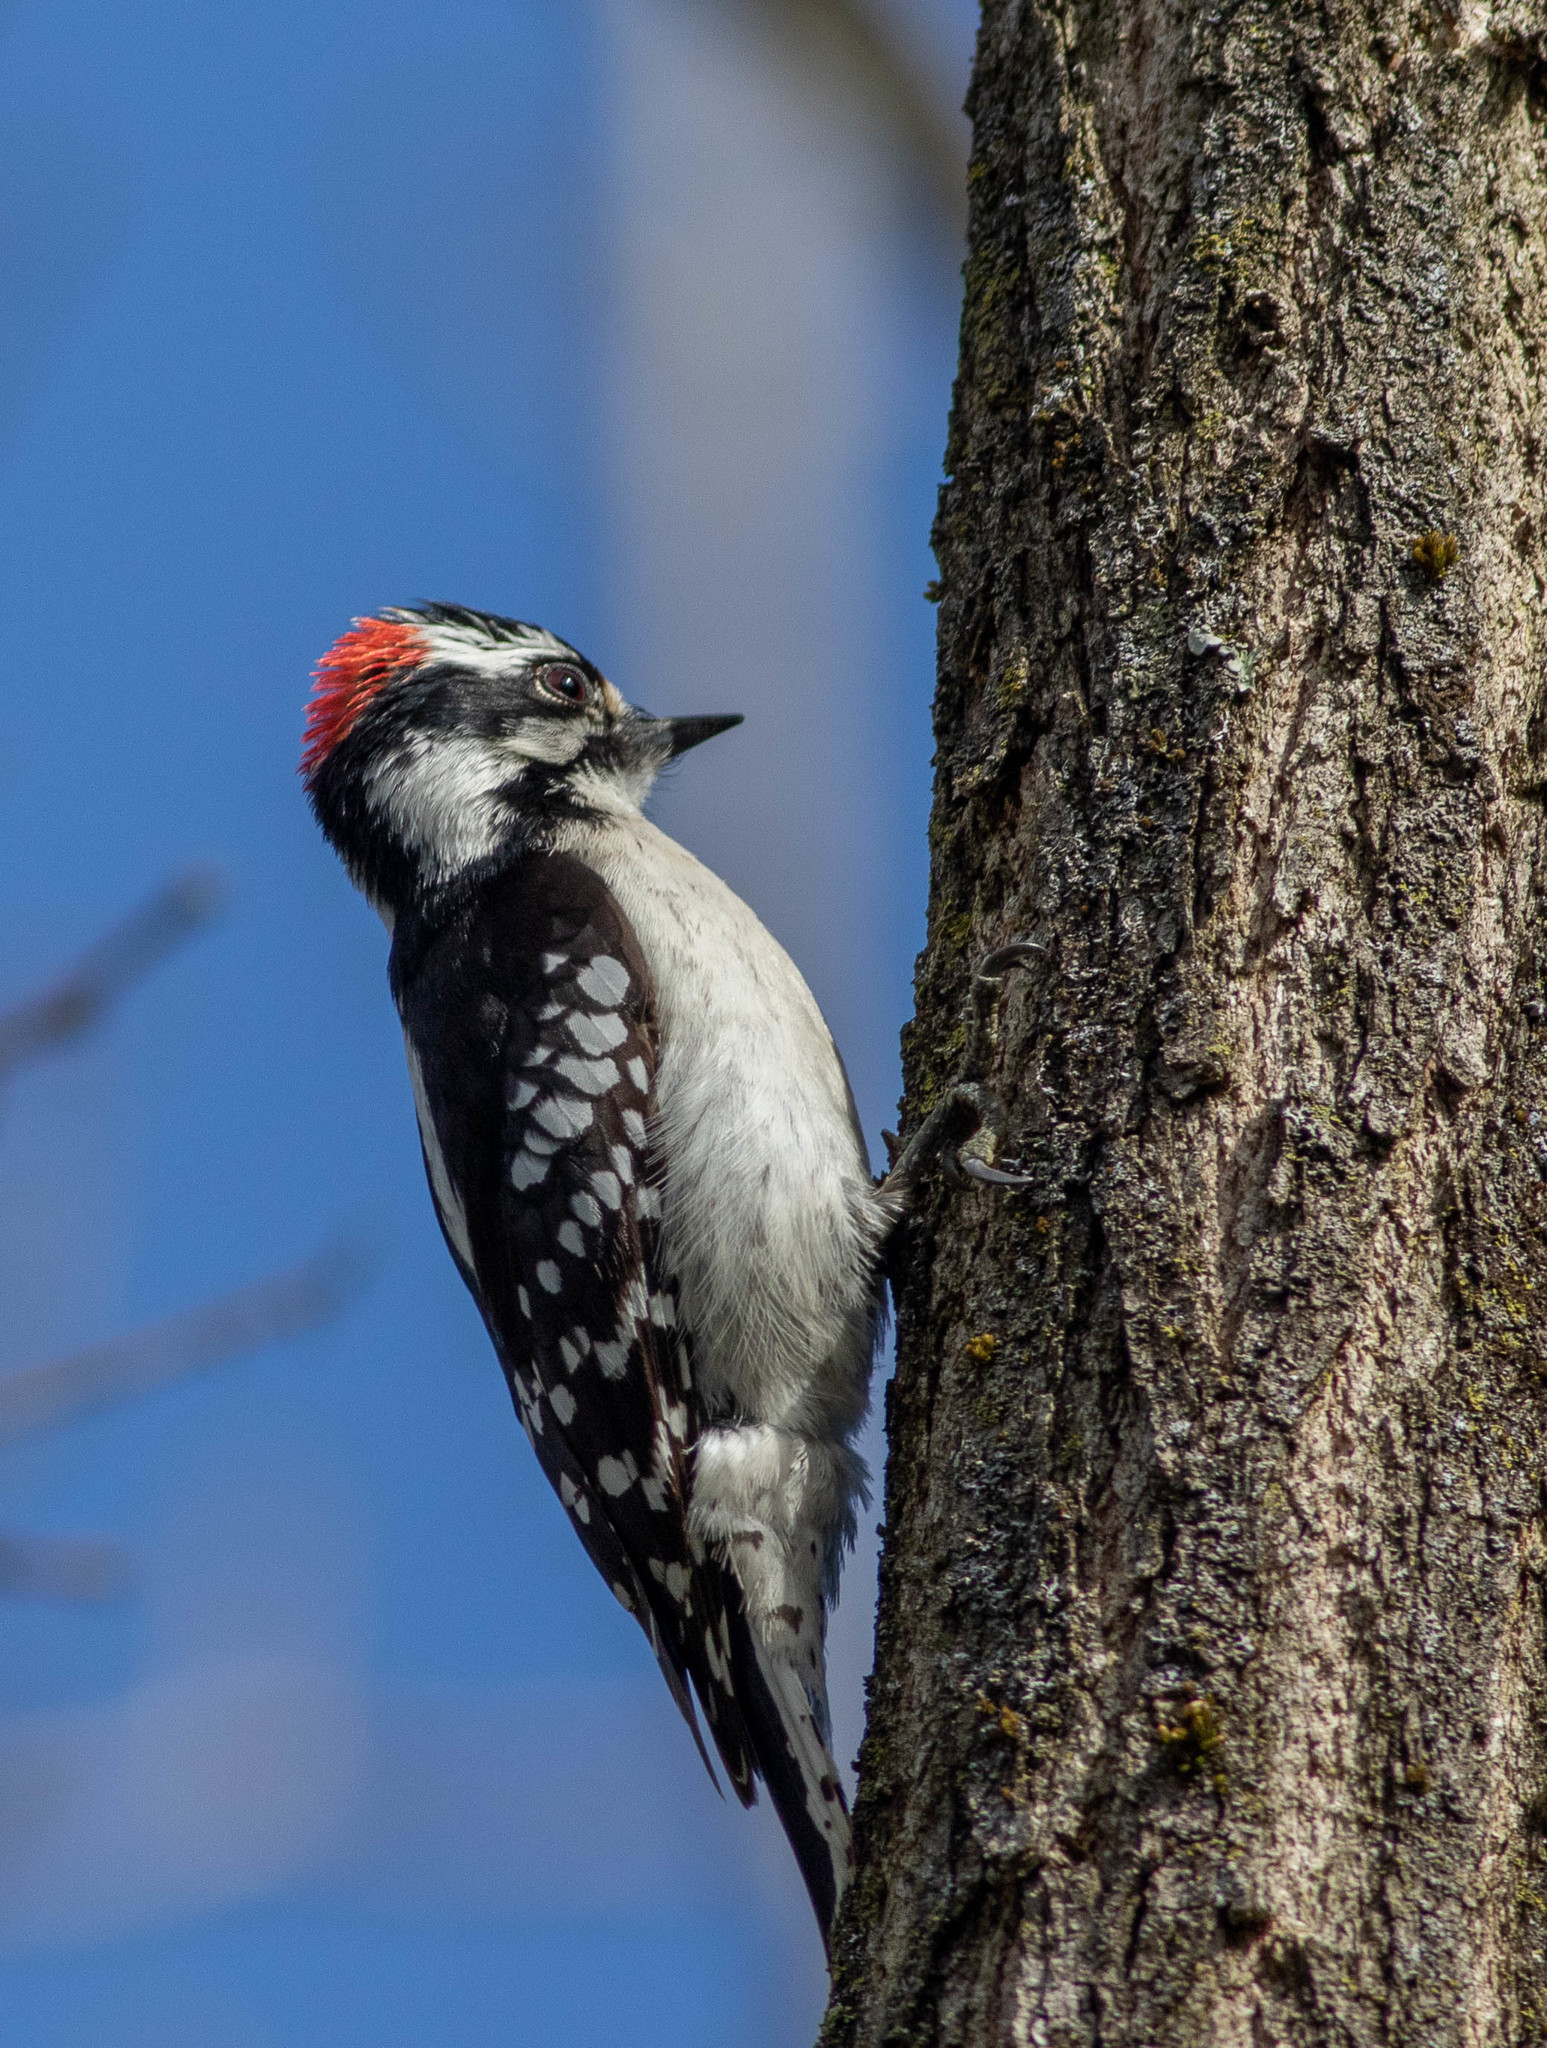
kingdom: Animalia
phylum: Chordata
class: Aves
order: Piciformes
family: Picidae
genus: Dryobates
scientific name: Dryobates pubescens
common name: Downy woodpecker
